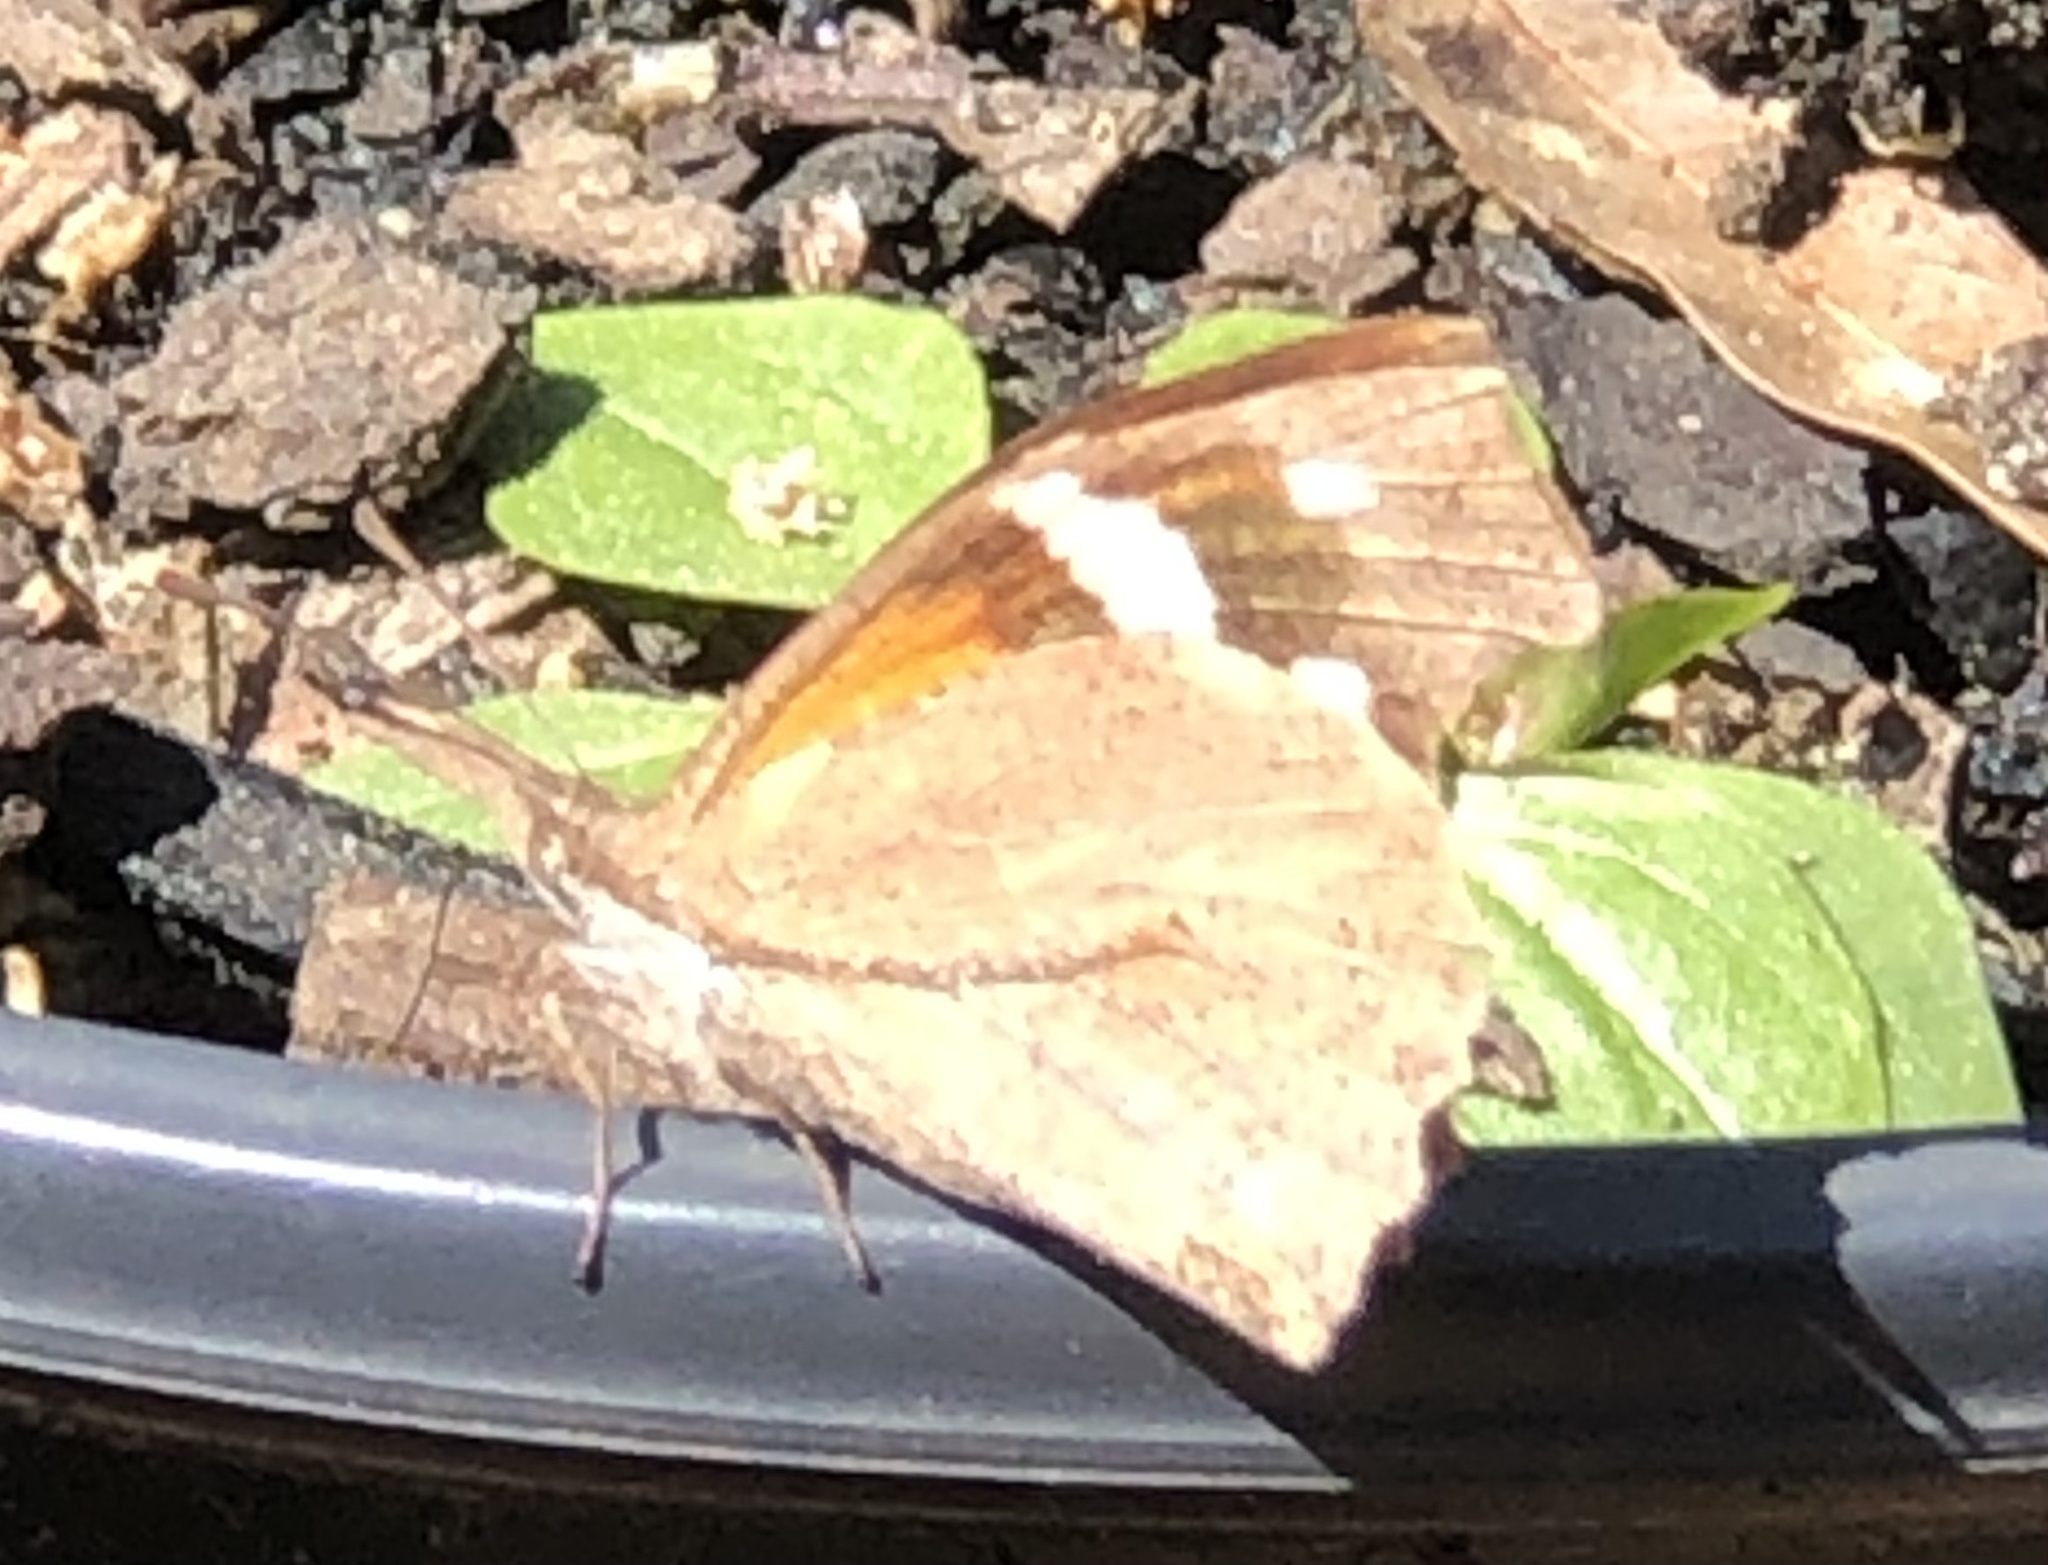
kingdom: Animalia
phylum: Arthropoda
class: Insecta
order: Lepidoptera
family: Nymphalidae
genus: Libytheana
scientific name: Libytheana carinenta
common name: American snout
